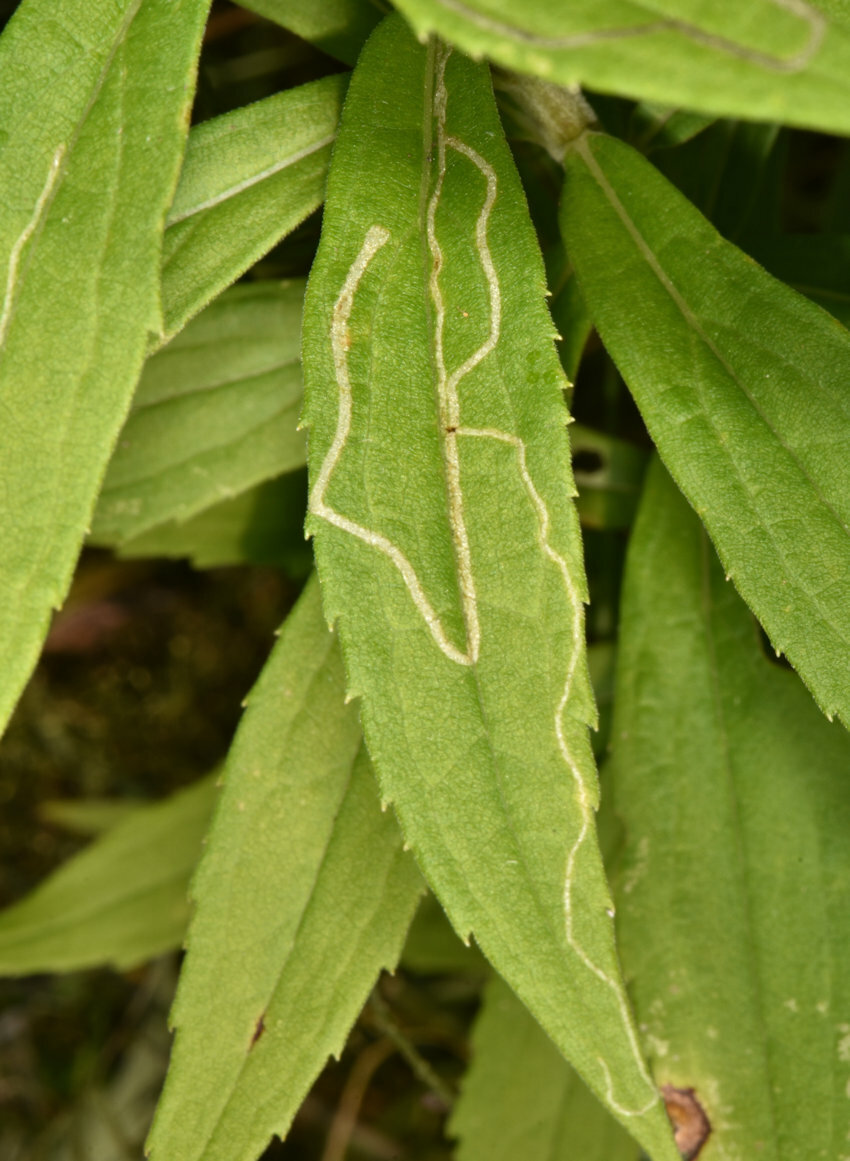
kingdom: Animalia
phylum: Arthropoda
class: Insecta
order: Diptera
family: Agromyzidae
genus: Ophiomyia
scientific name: Ophiomyia maura
